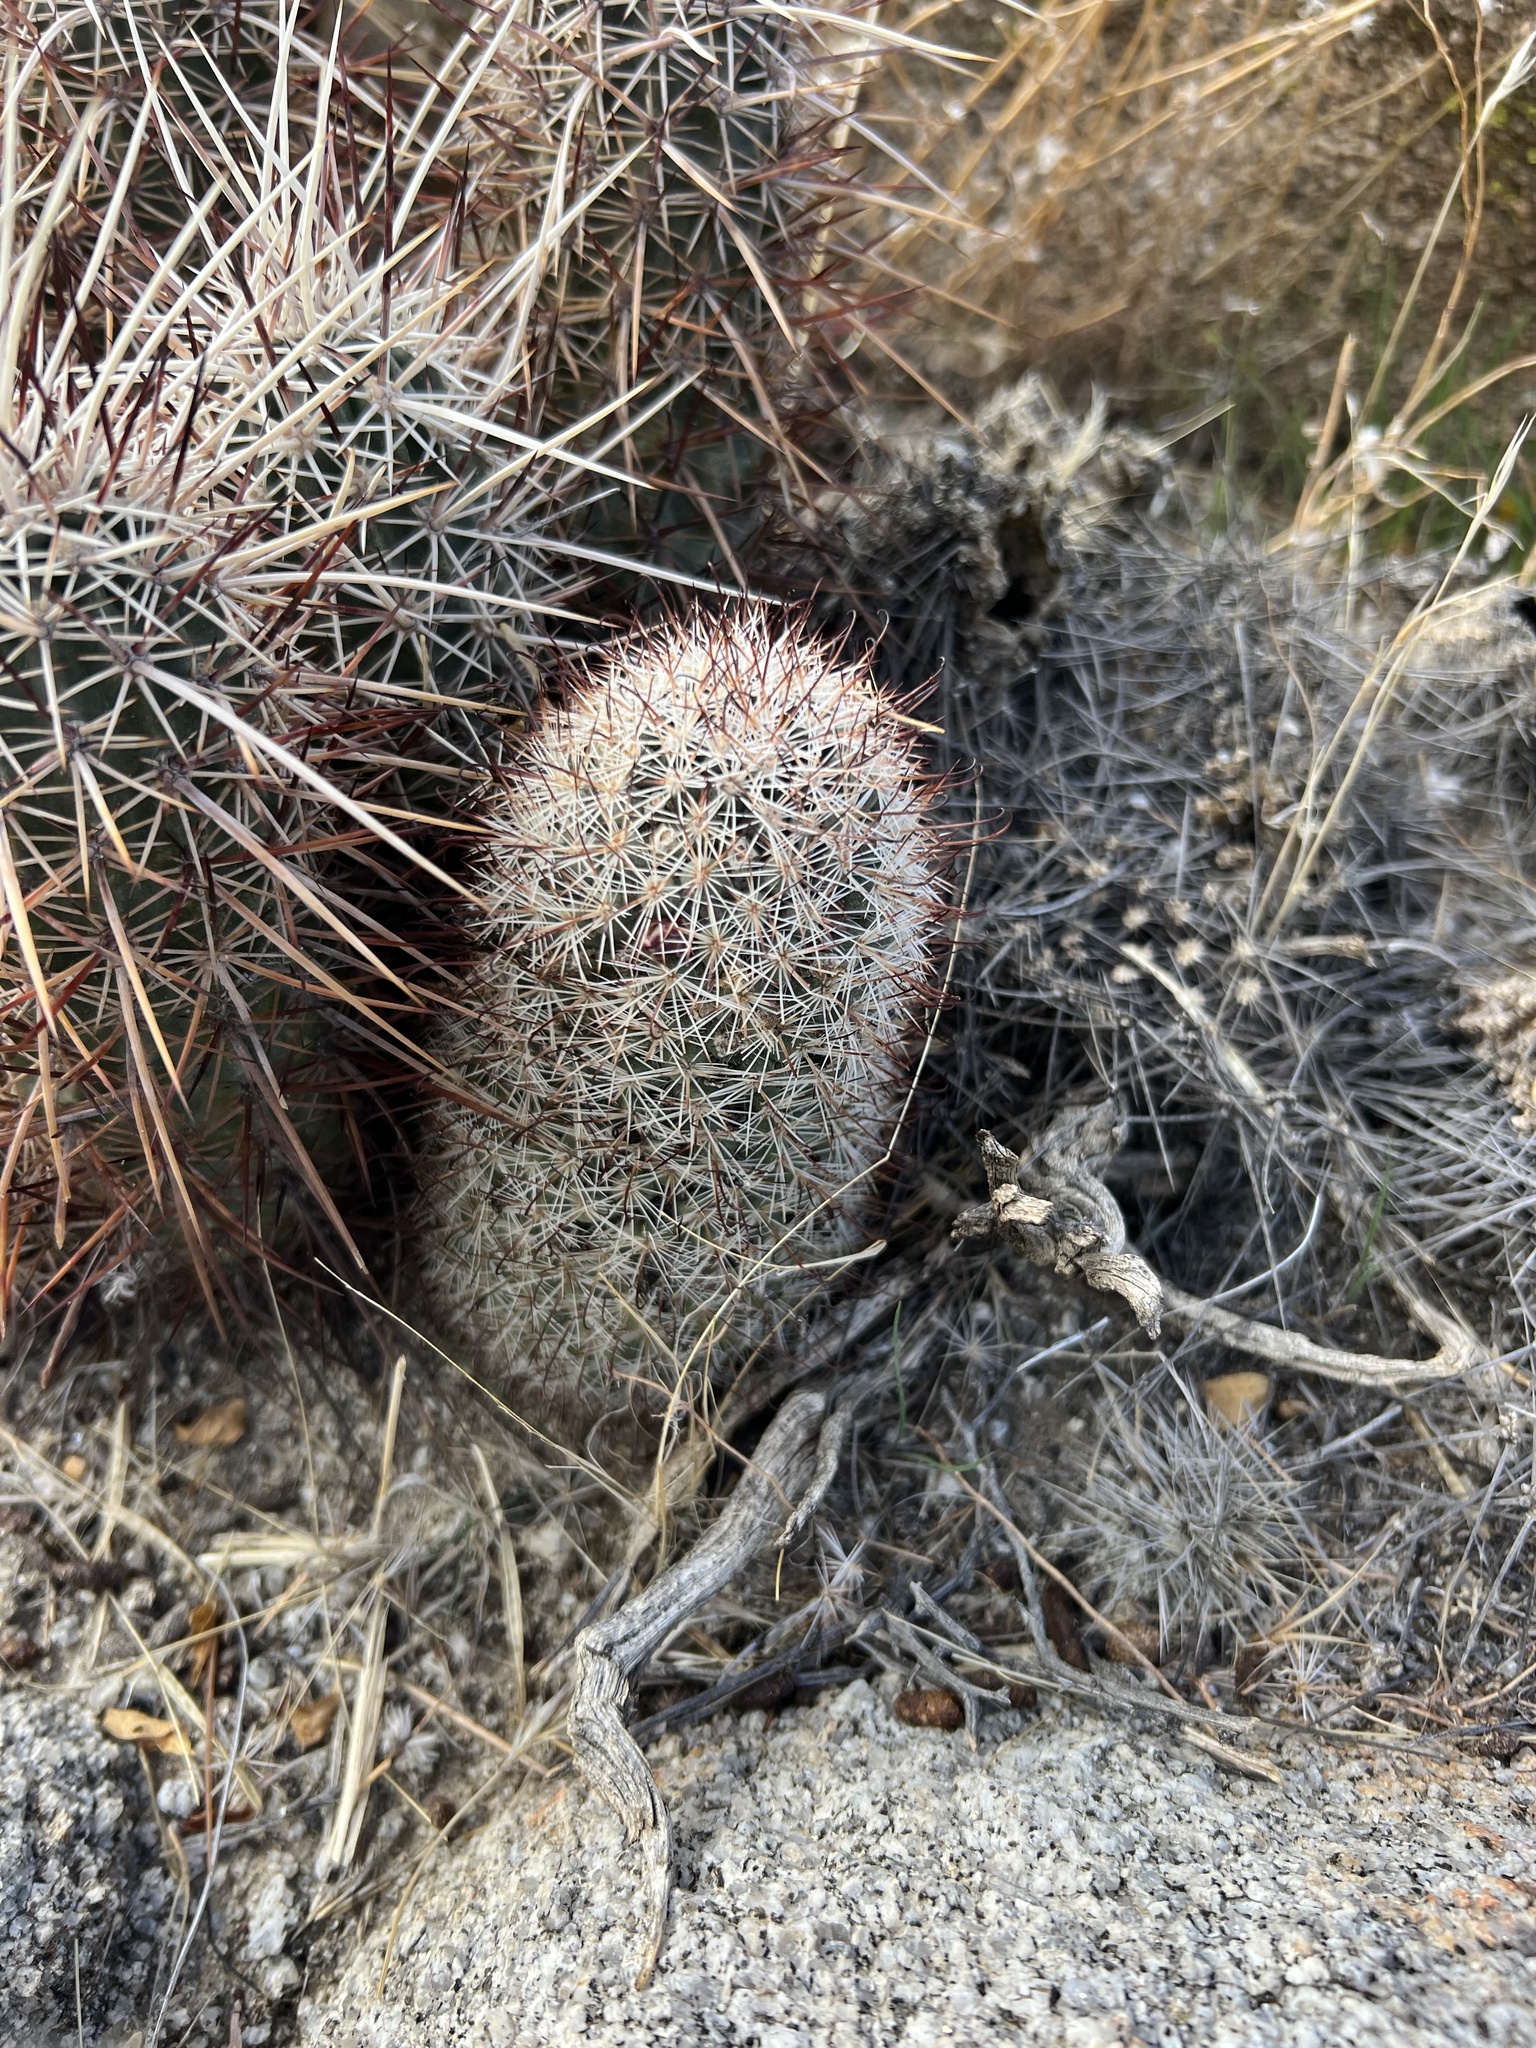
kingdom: Plantae
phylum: Tracheophyta
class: Magnoliopsida
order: Caryophyllales
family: Cactaceae
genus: Cochemiea
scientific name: Cochemiea dioica
